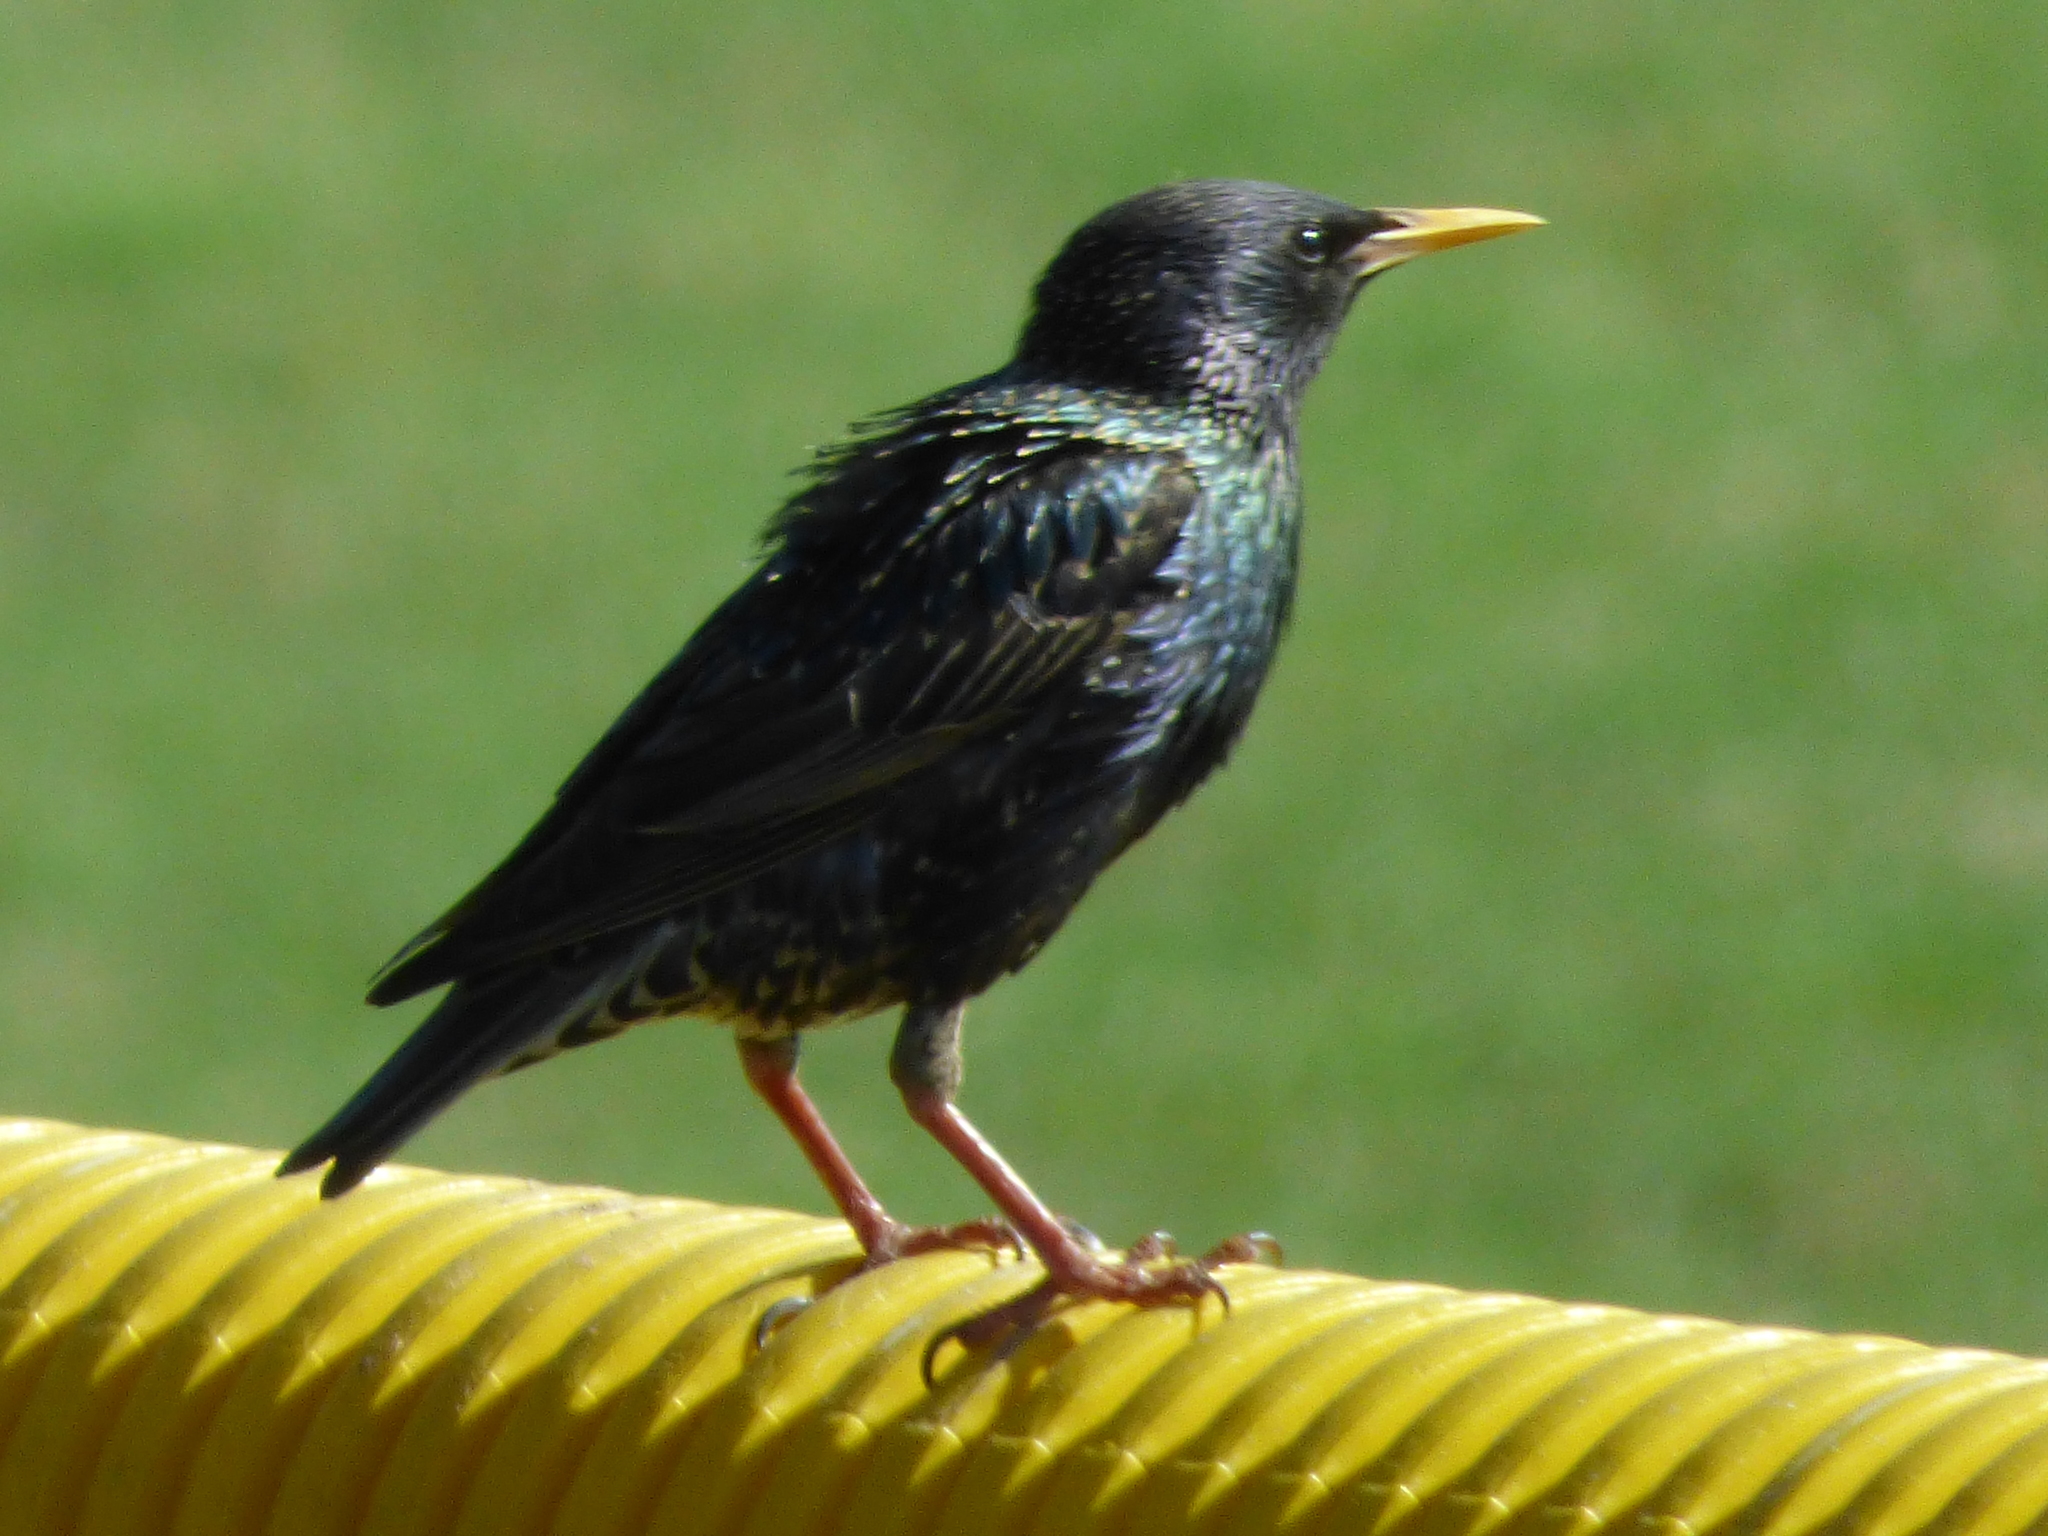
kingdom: Animalia
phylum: Chordata
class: Aves
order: Passeriformes
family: Sturnidae
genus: Sturnus
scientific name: Sturnus vulgaris
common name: Common starling
